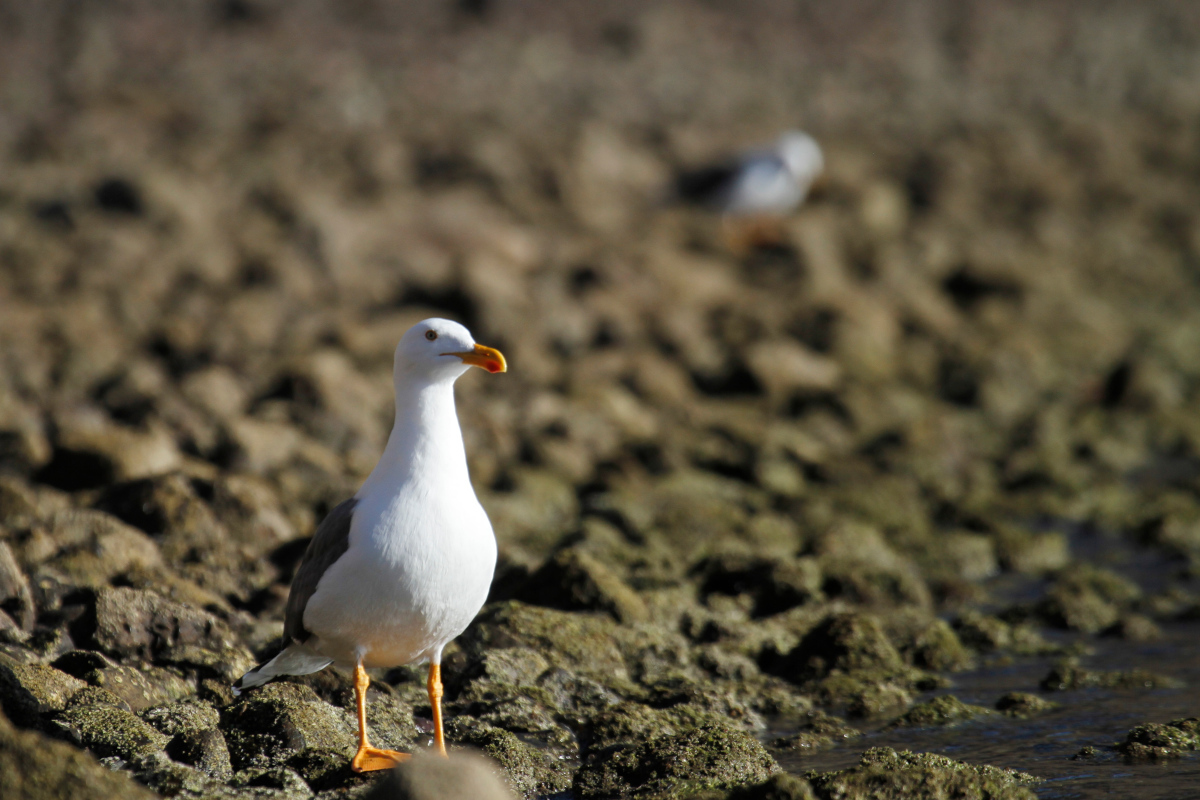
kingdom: Animalia
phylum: Chordata
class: Aves
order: Charadriiformes
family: Laridae
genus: Larus
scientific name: Larus livens
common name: Yellow-footed gull
